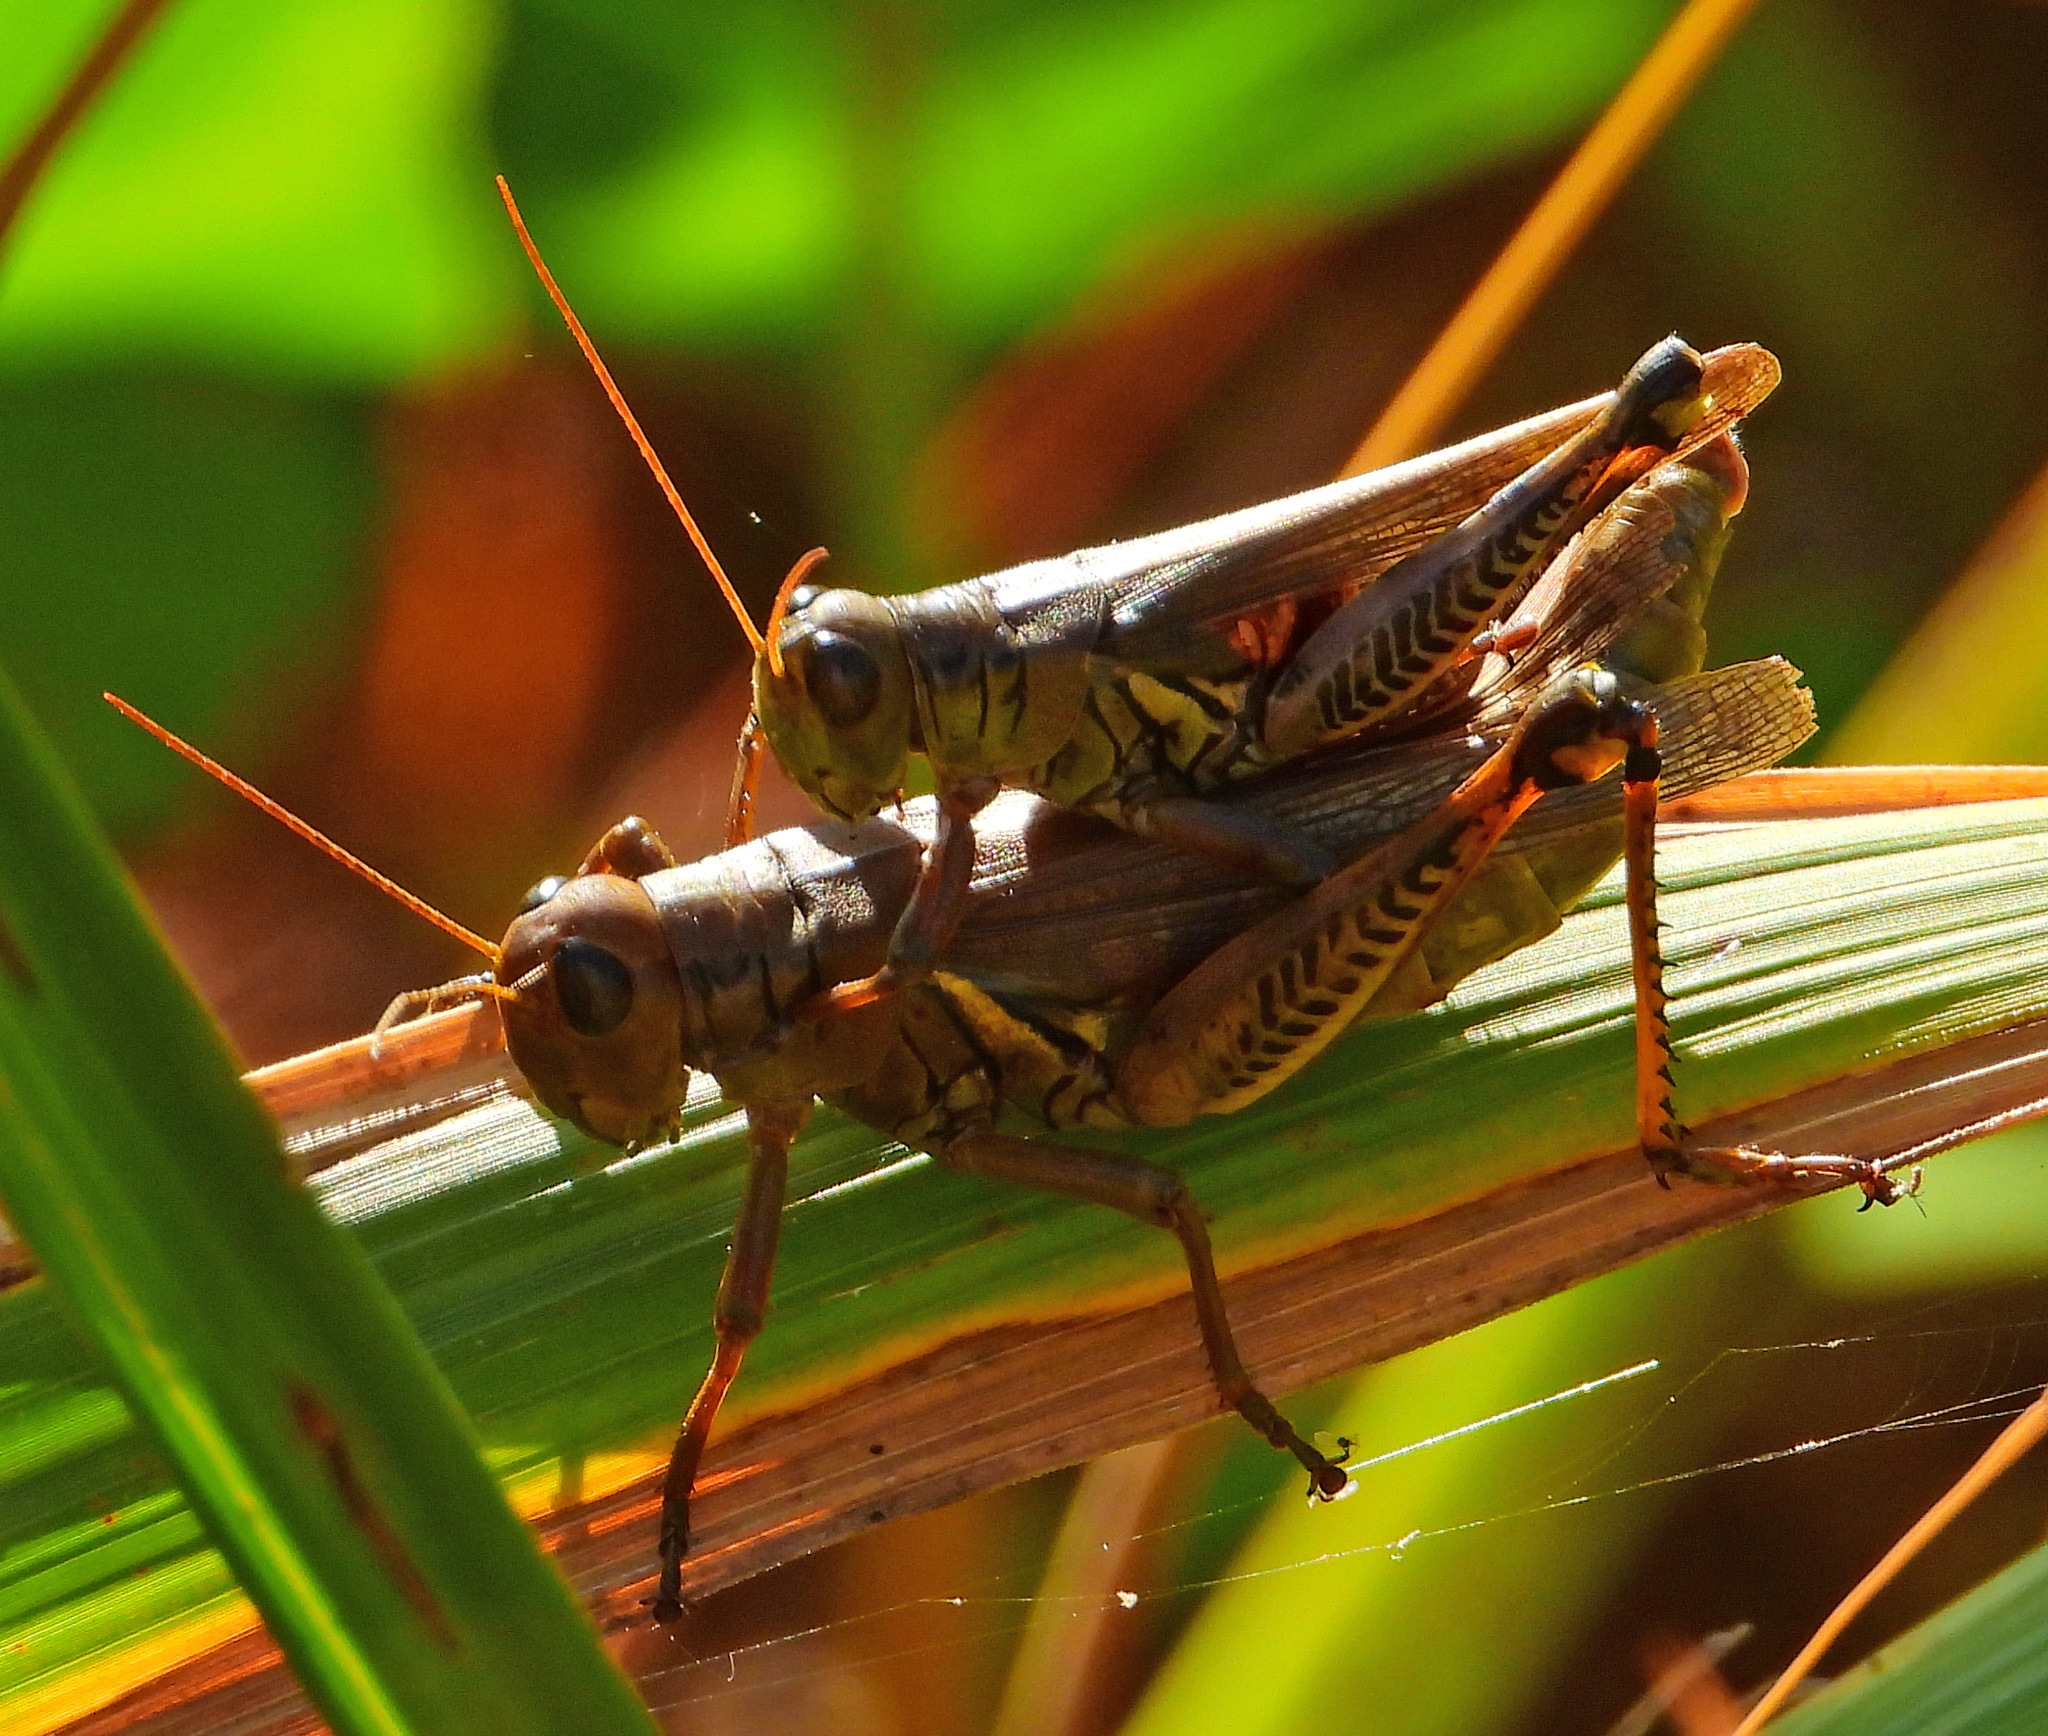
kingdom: Animalia
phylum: Arthropoda
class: Insecta
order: Orthoptera
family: Acrididae
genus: Melanoplus
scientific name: Melanoplus differentialis
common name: Differential grasshopper
